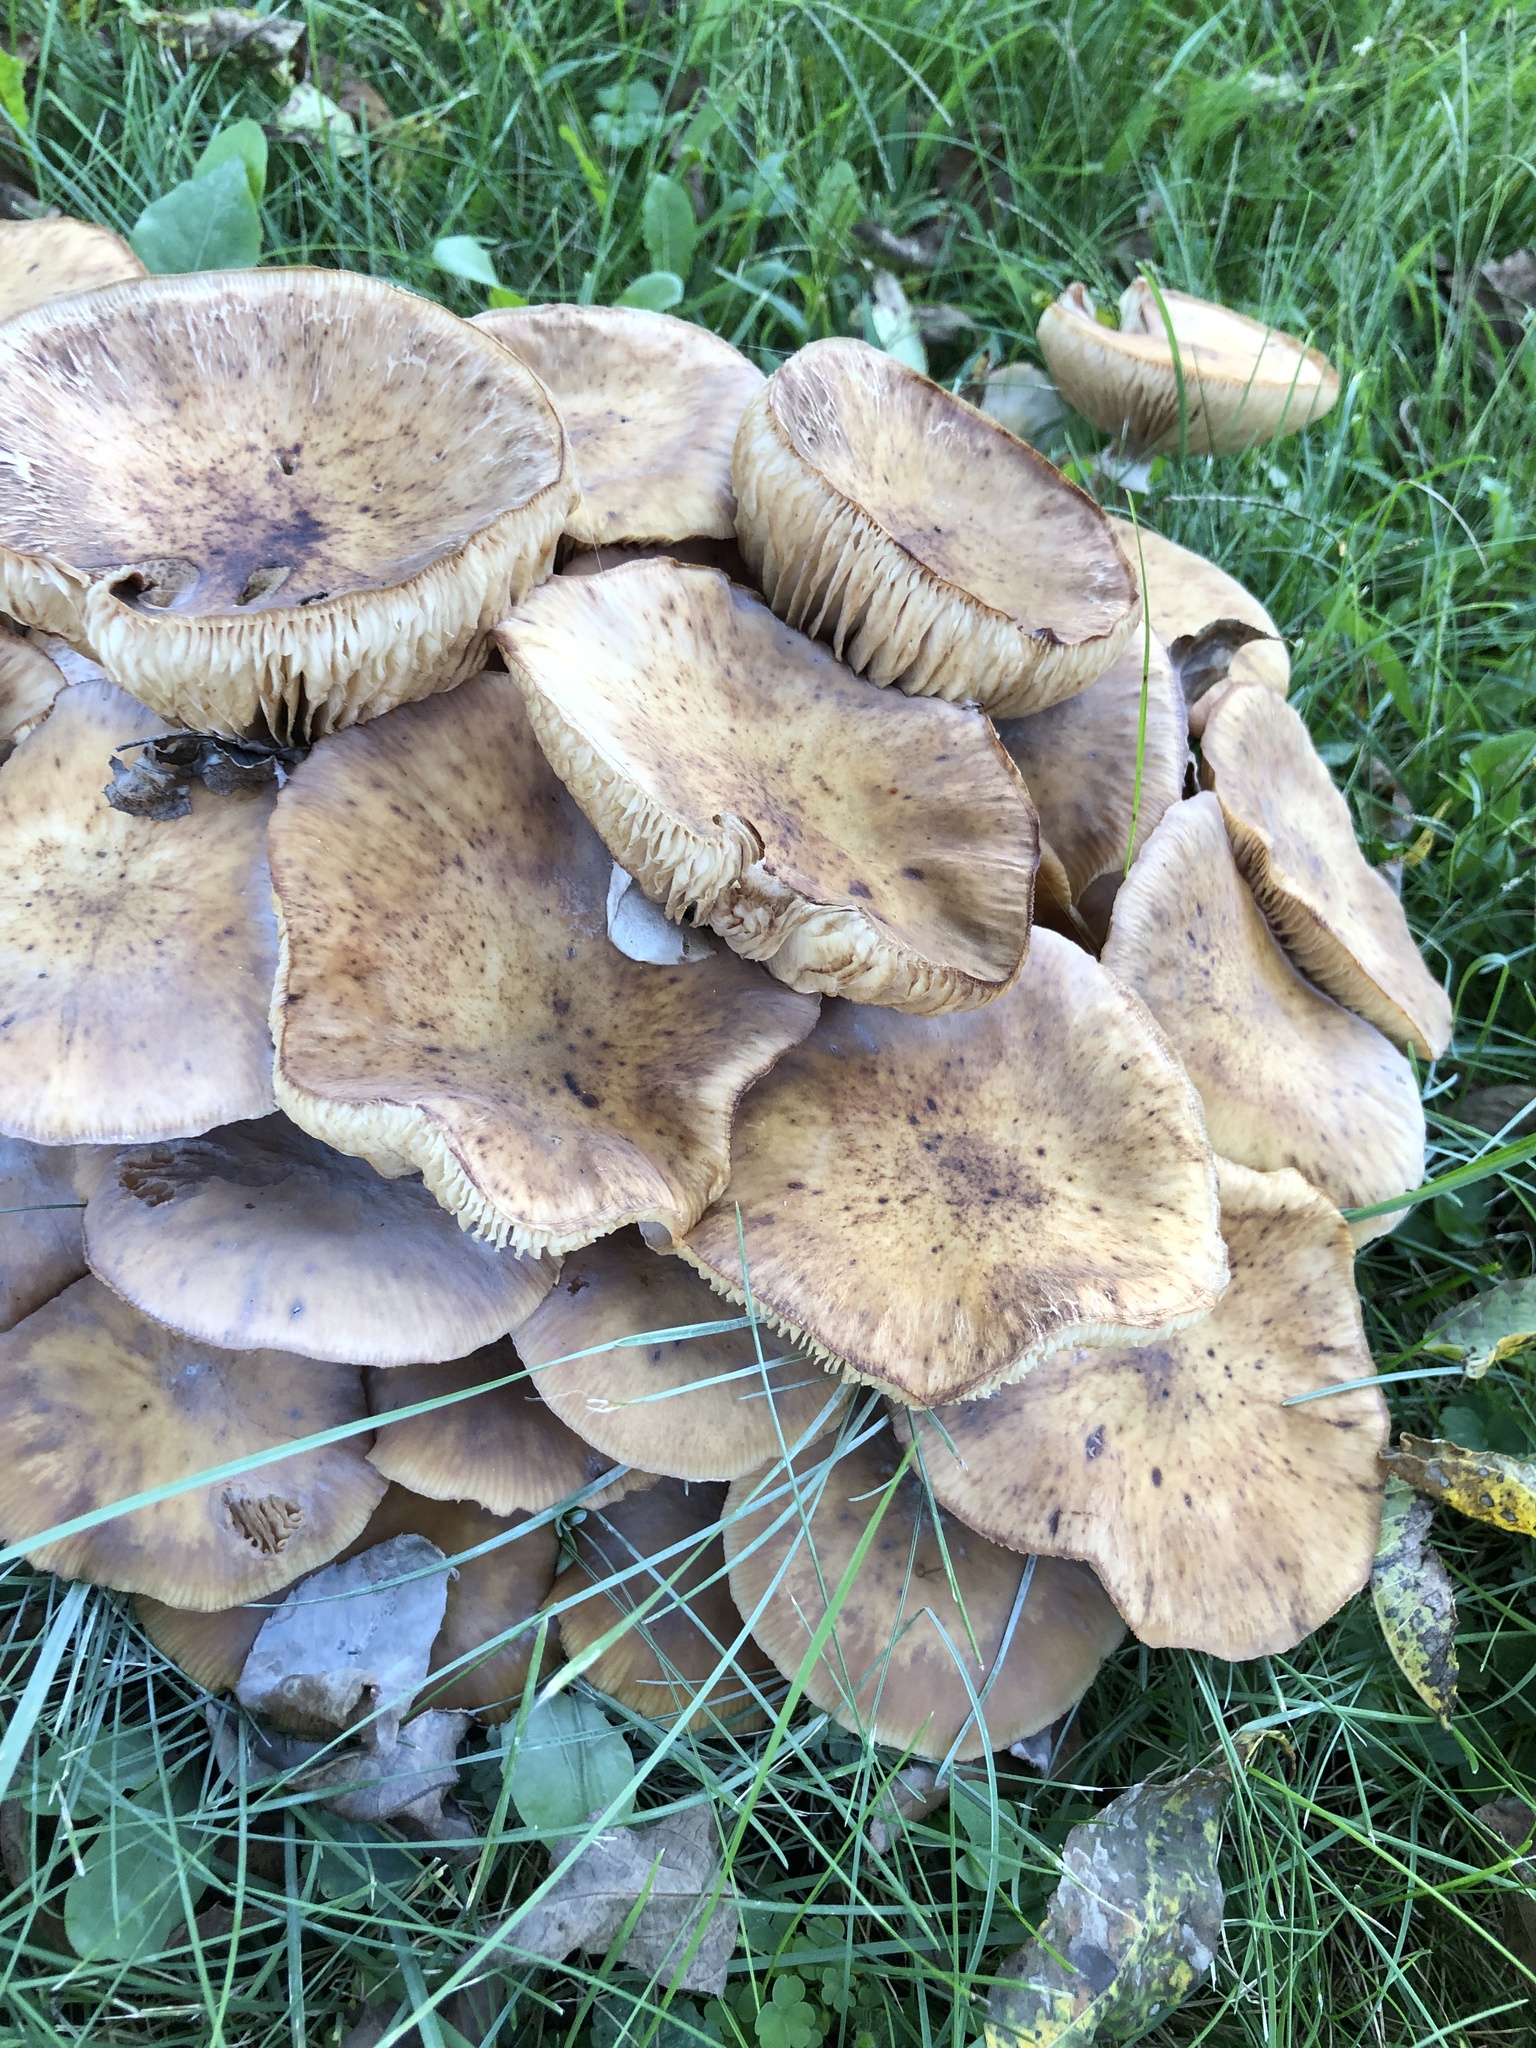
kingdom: Fungi
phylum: Basidiomycota
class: Agaricomycetes
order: Agaricales
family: Physalacriaceae
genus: Armillaria
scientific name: Armillaria mellea
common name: Honey fungus
